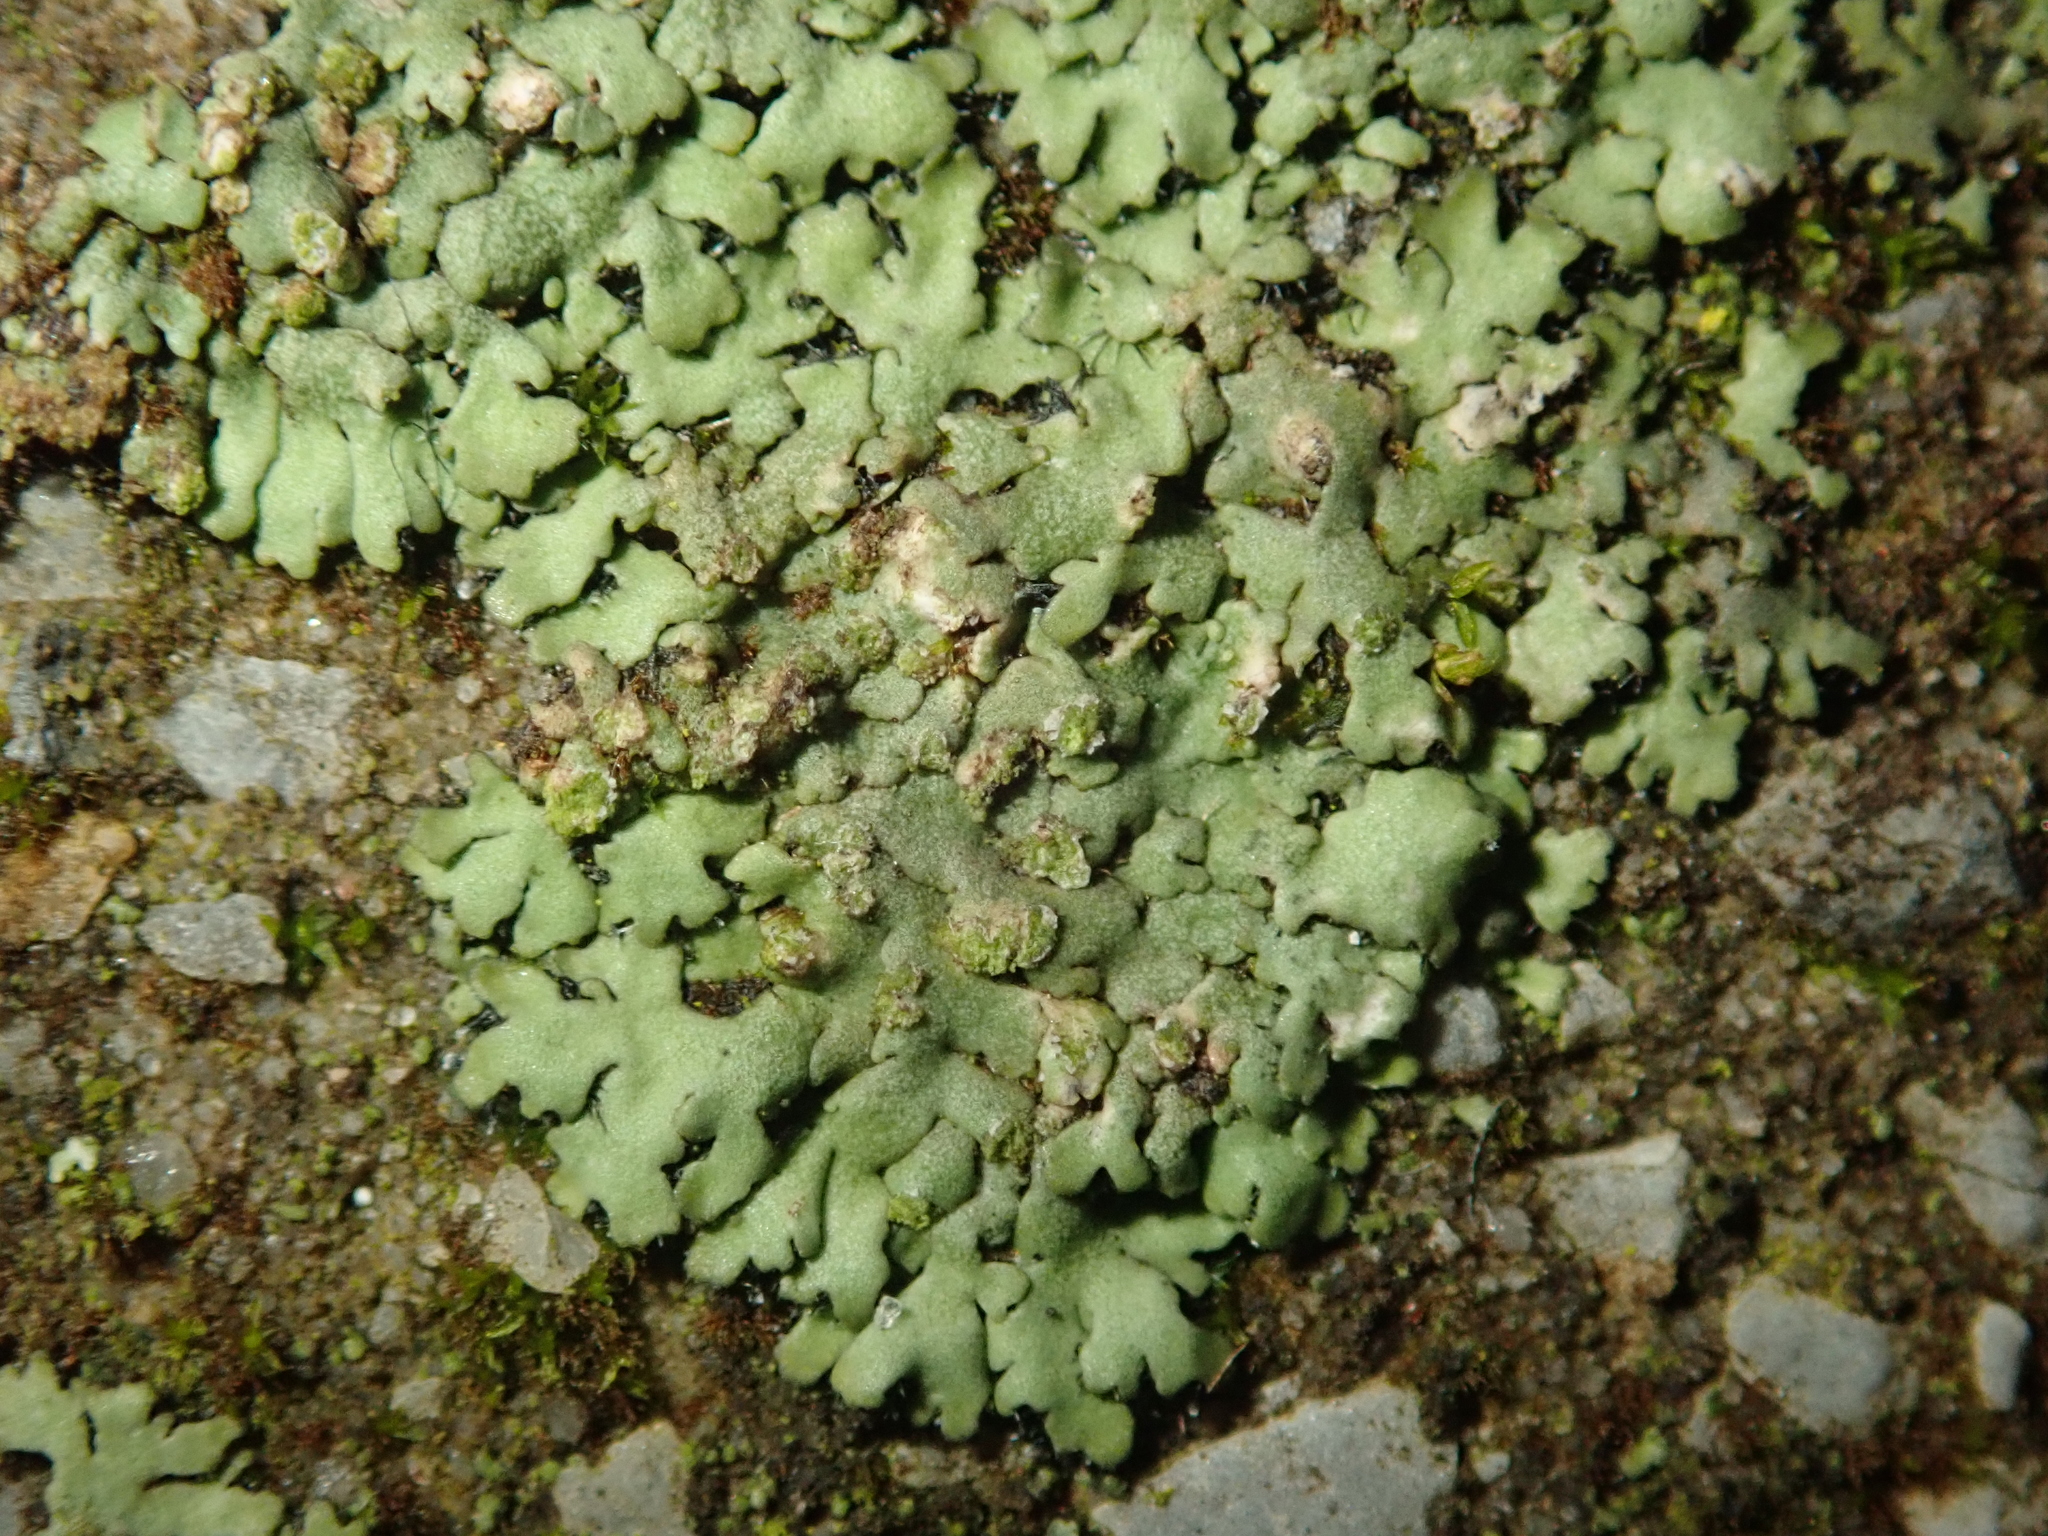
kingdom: Fungi
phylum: Ascomycota
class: Lecanoromycetes
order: Caliciales
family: Physciaceae
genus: Phaeophyscia
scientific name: Phaeophyscia orbicularis
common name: Mealy shadow lichen
